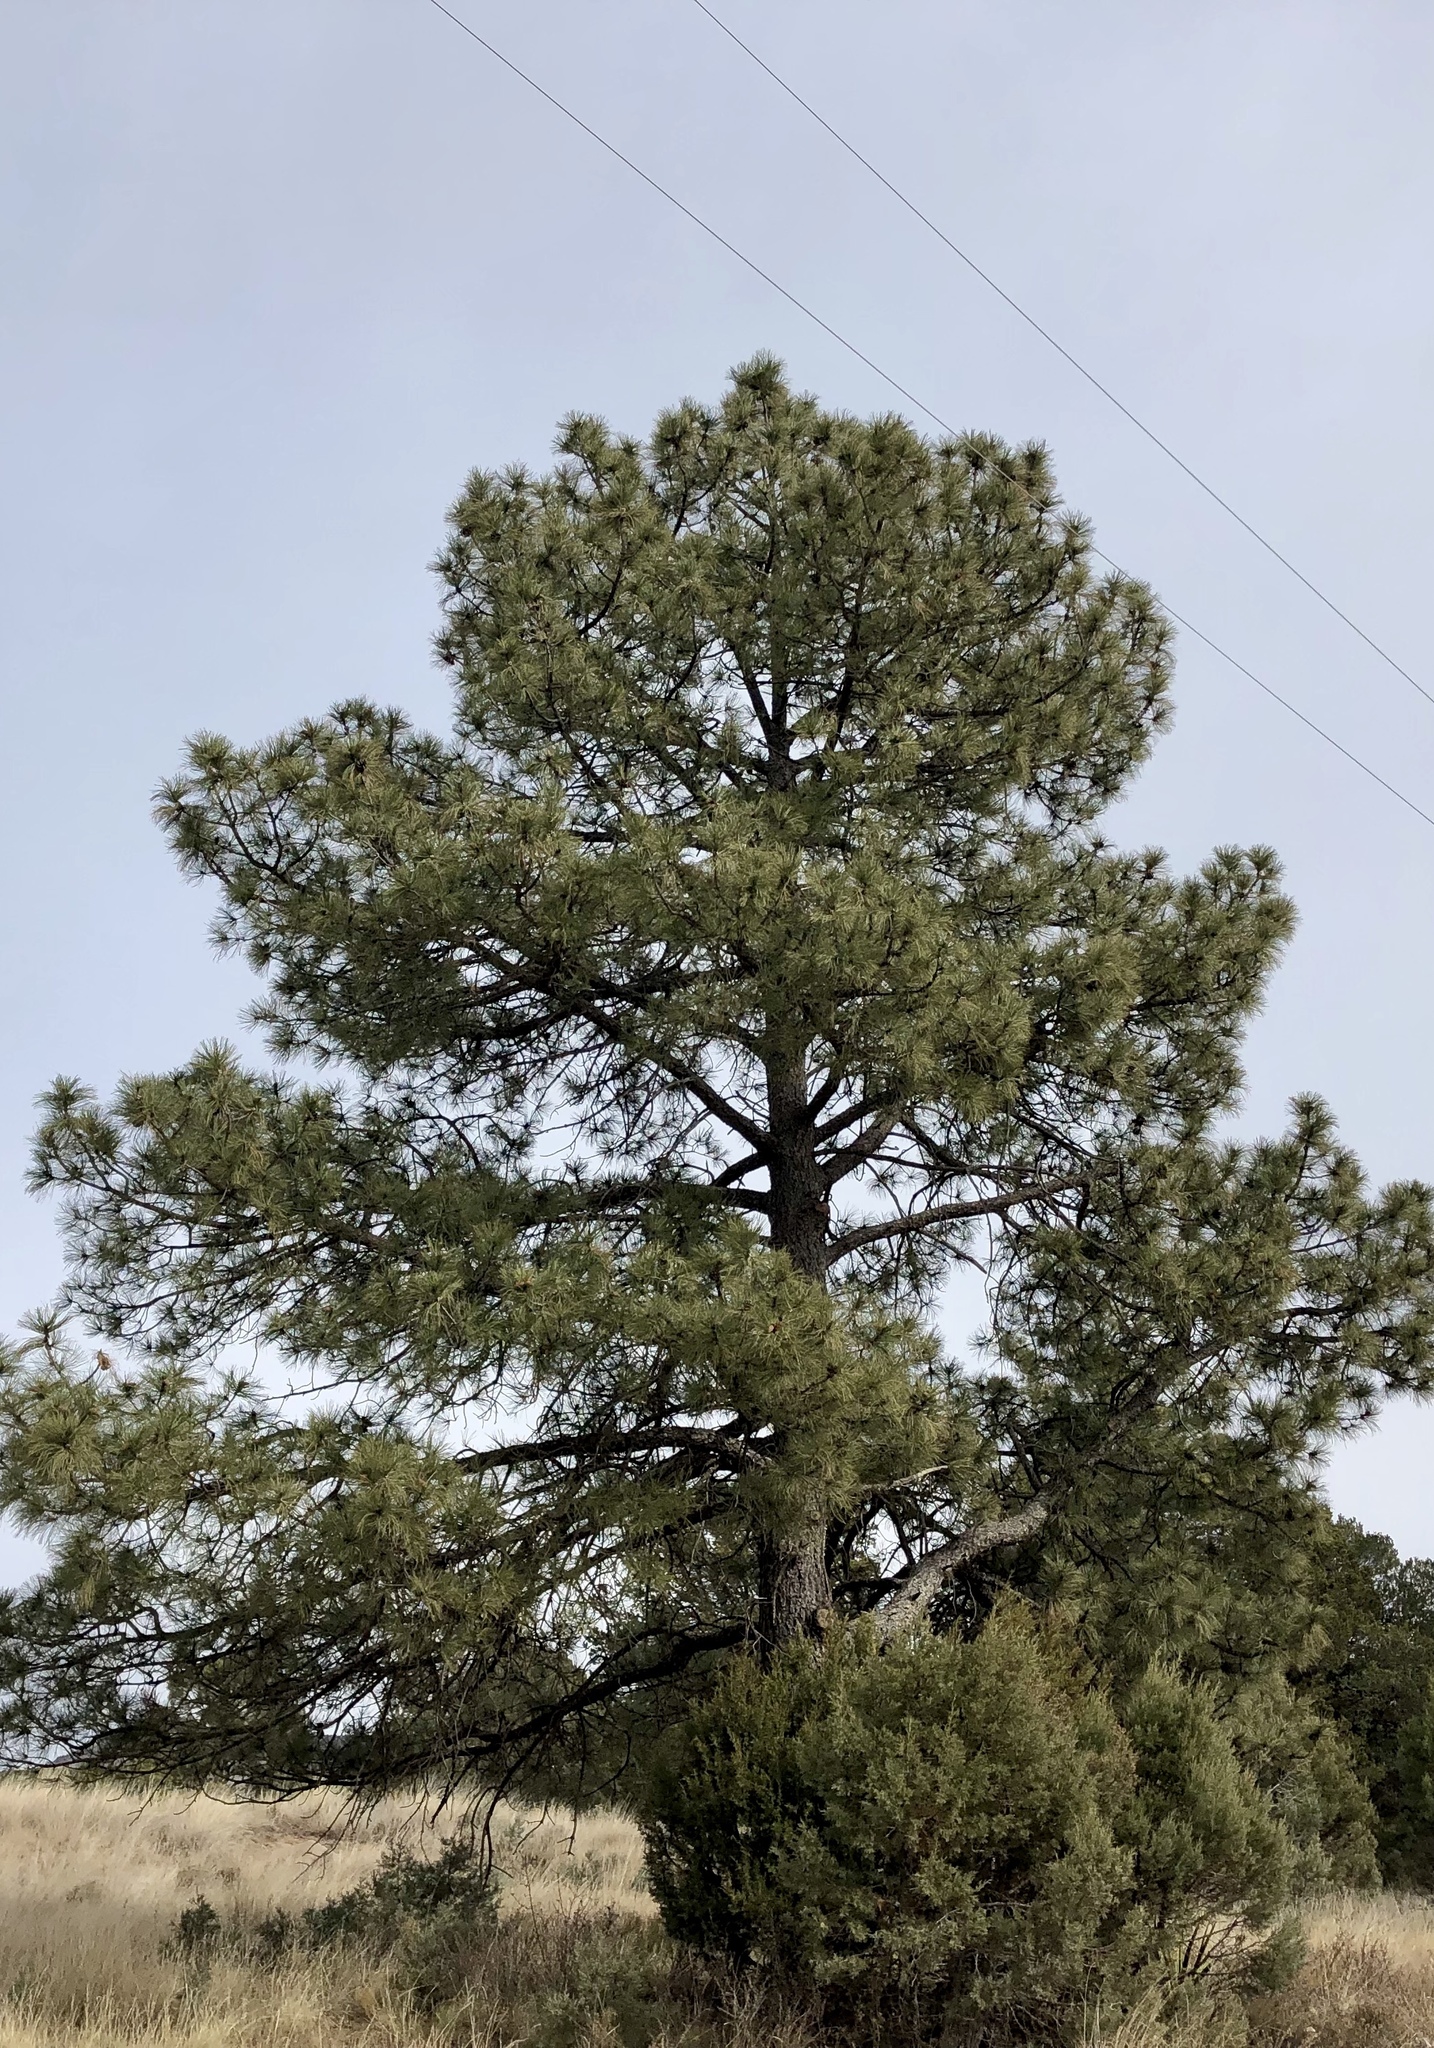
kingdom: Plantae
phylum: Tracheophyta
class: Pinopsida
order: Pinales
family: Pinaceae
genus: Pinus
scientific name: Pinus ponderosa
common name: Western yellow-pine
